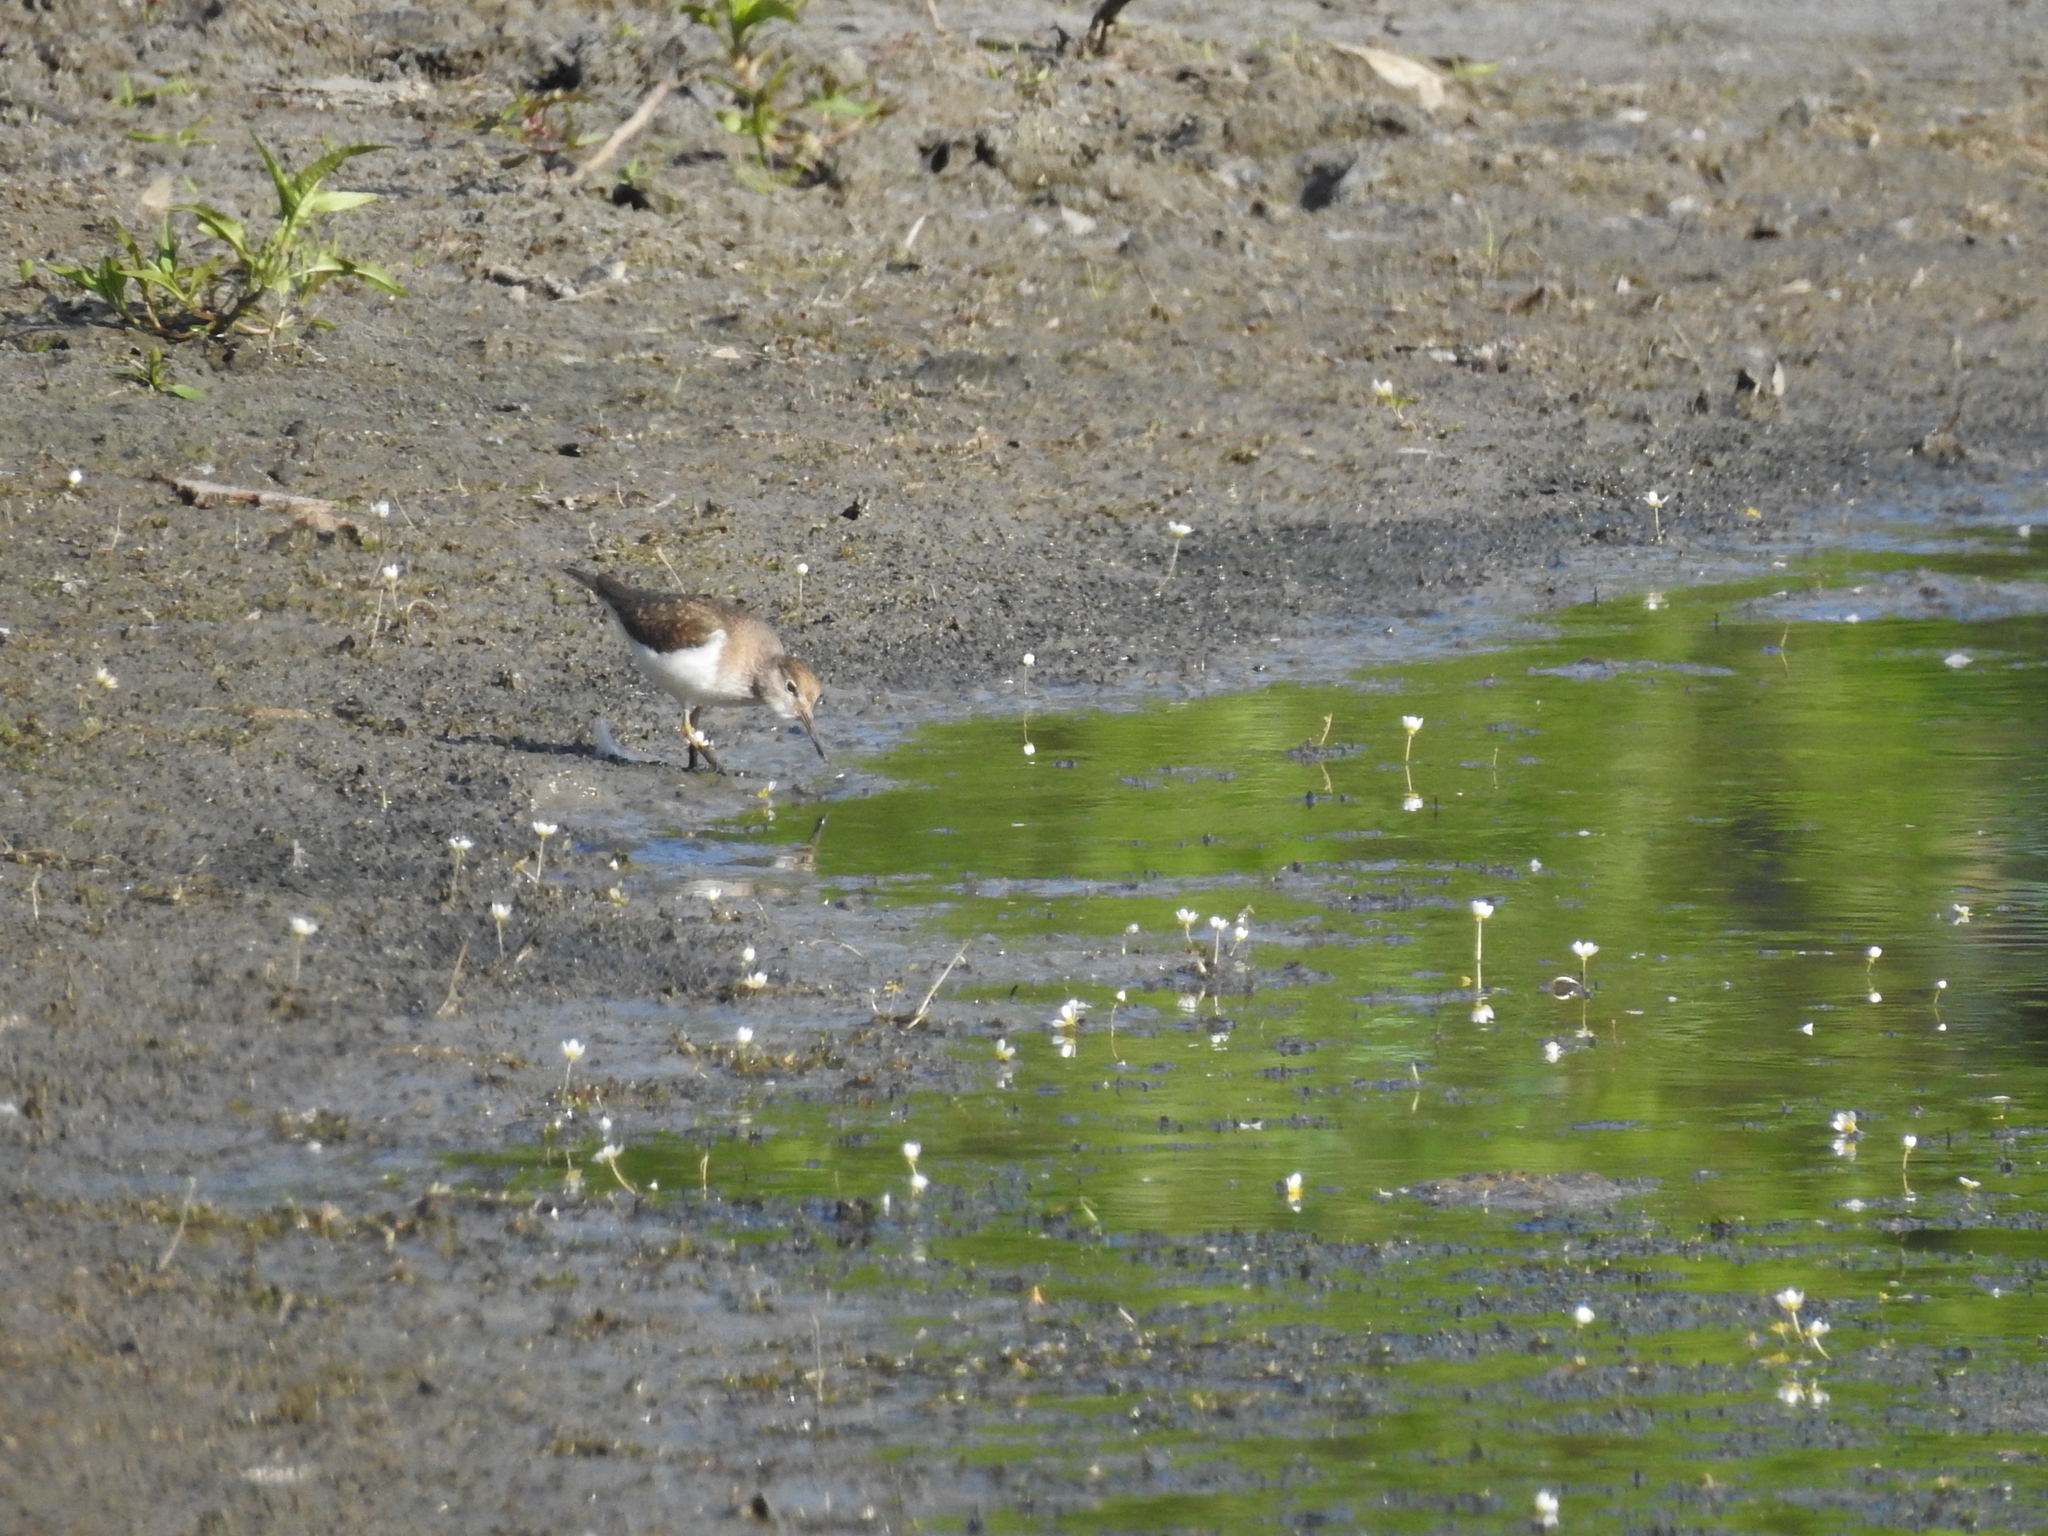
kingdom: Animalia
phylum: Chordata
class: Aves
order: Charadriiformes
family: Scolopacidae
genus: Actitis
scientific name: Actitis hypoleucos
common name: Common sandpiper
